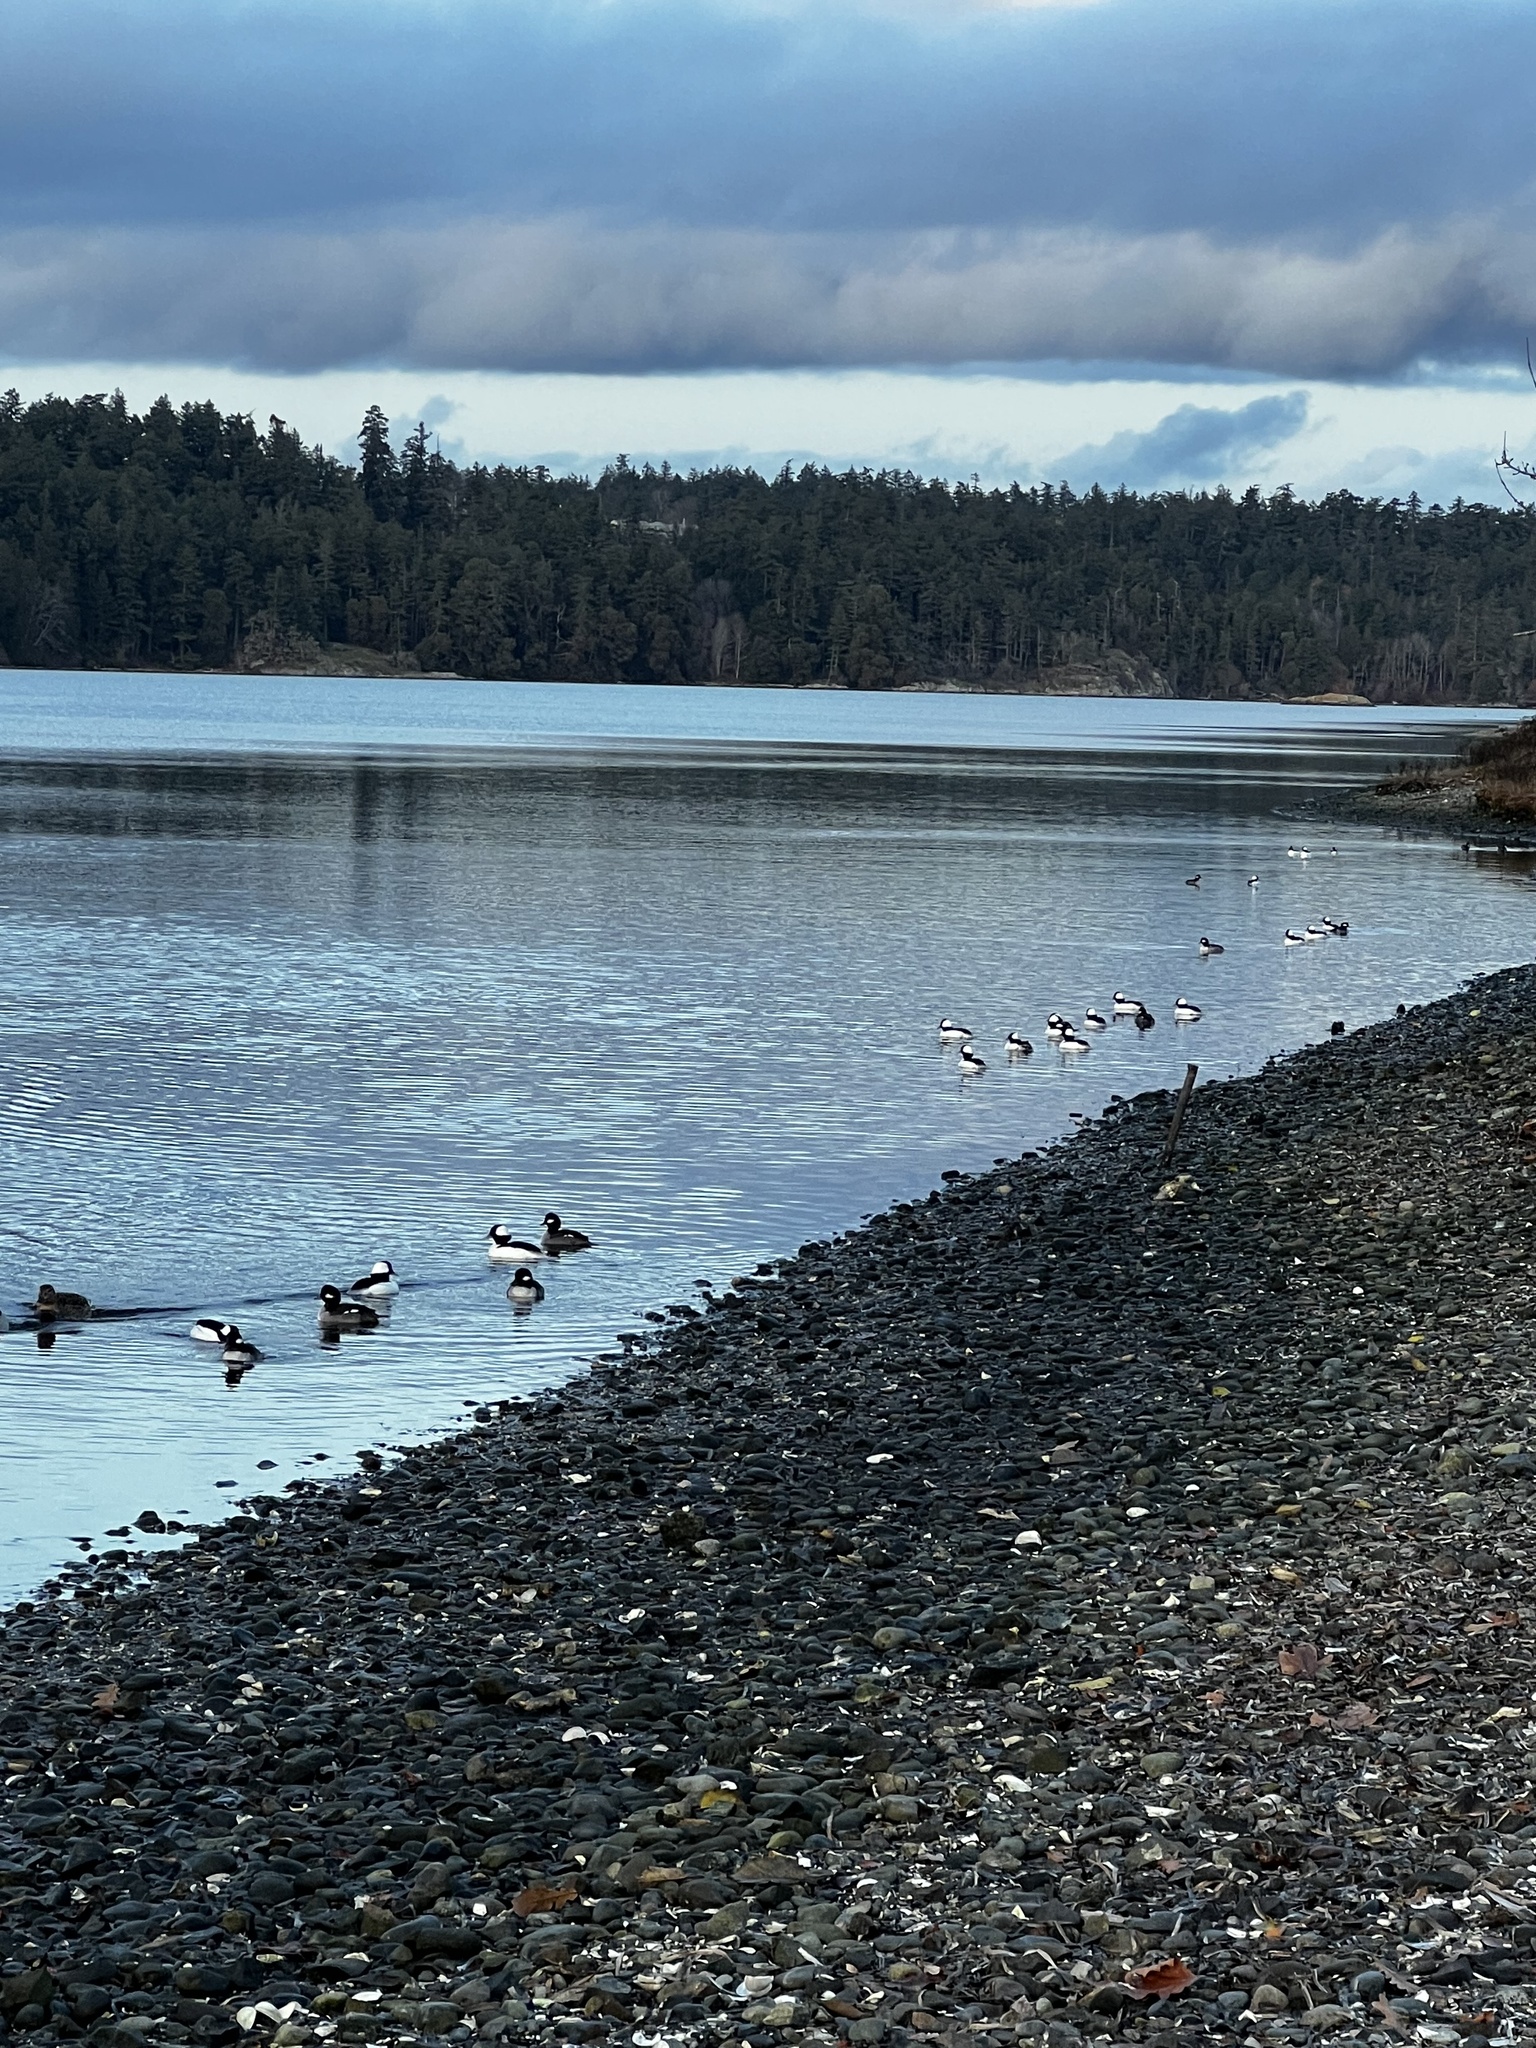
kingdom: Animalia
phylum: Chordata
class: Aves
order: Anseriformes
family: Anatidae
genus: Bucephala
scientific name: Bucephala albeola
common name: Bufflehead
